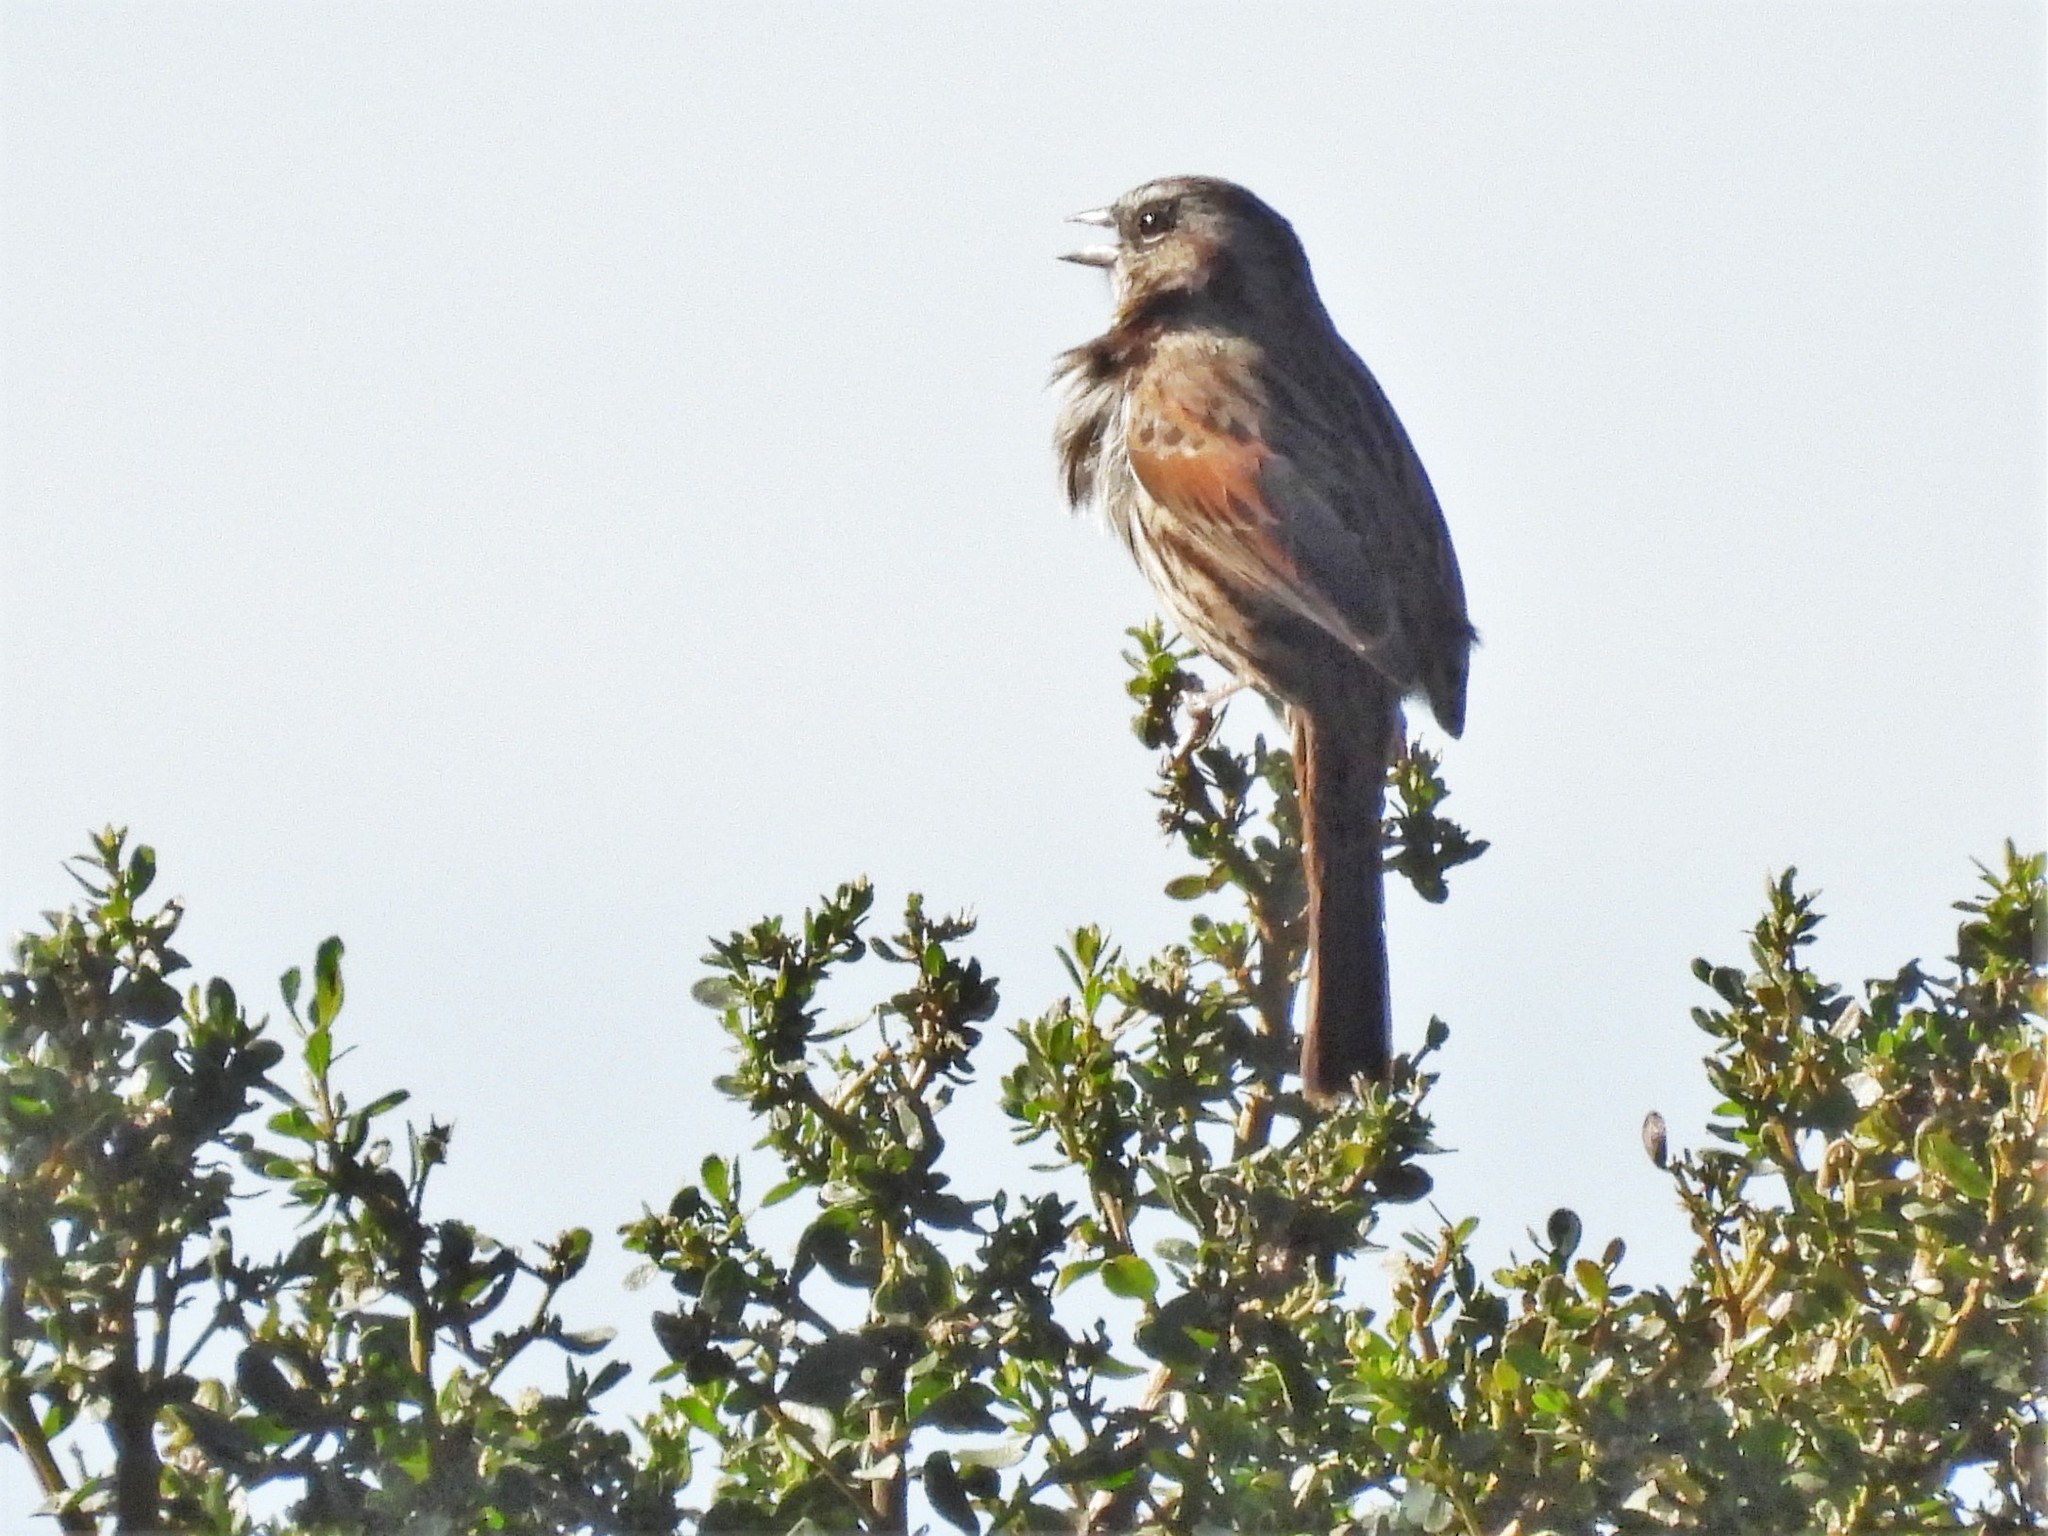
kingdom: Animalia
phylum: Chordata
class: Aves
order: Passeriformes
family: Passerellidae
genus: Melospiza
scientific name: Melospiza melodia
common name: Song sparrow
